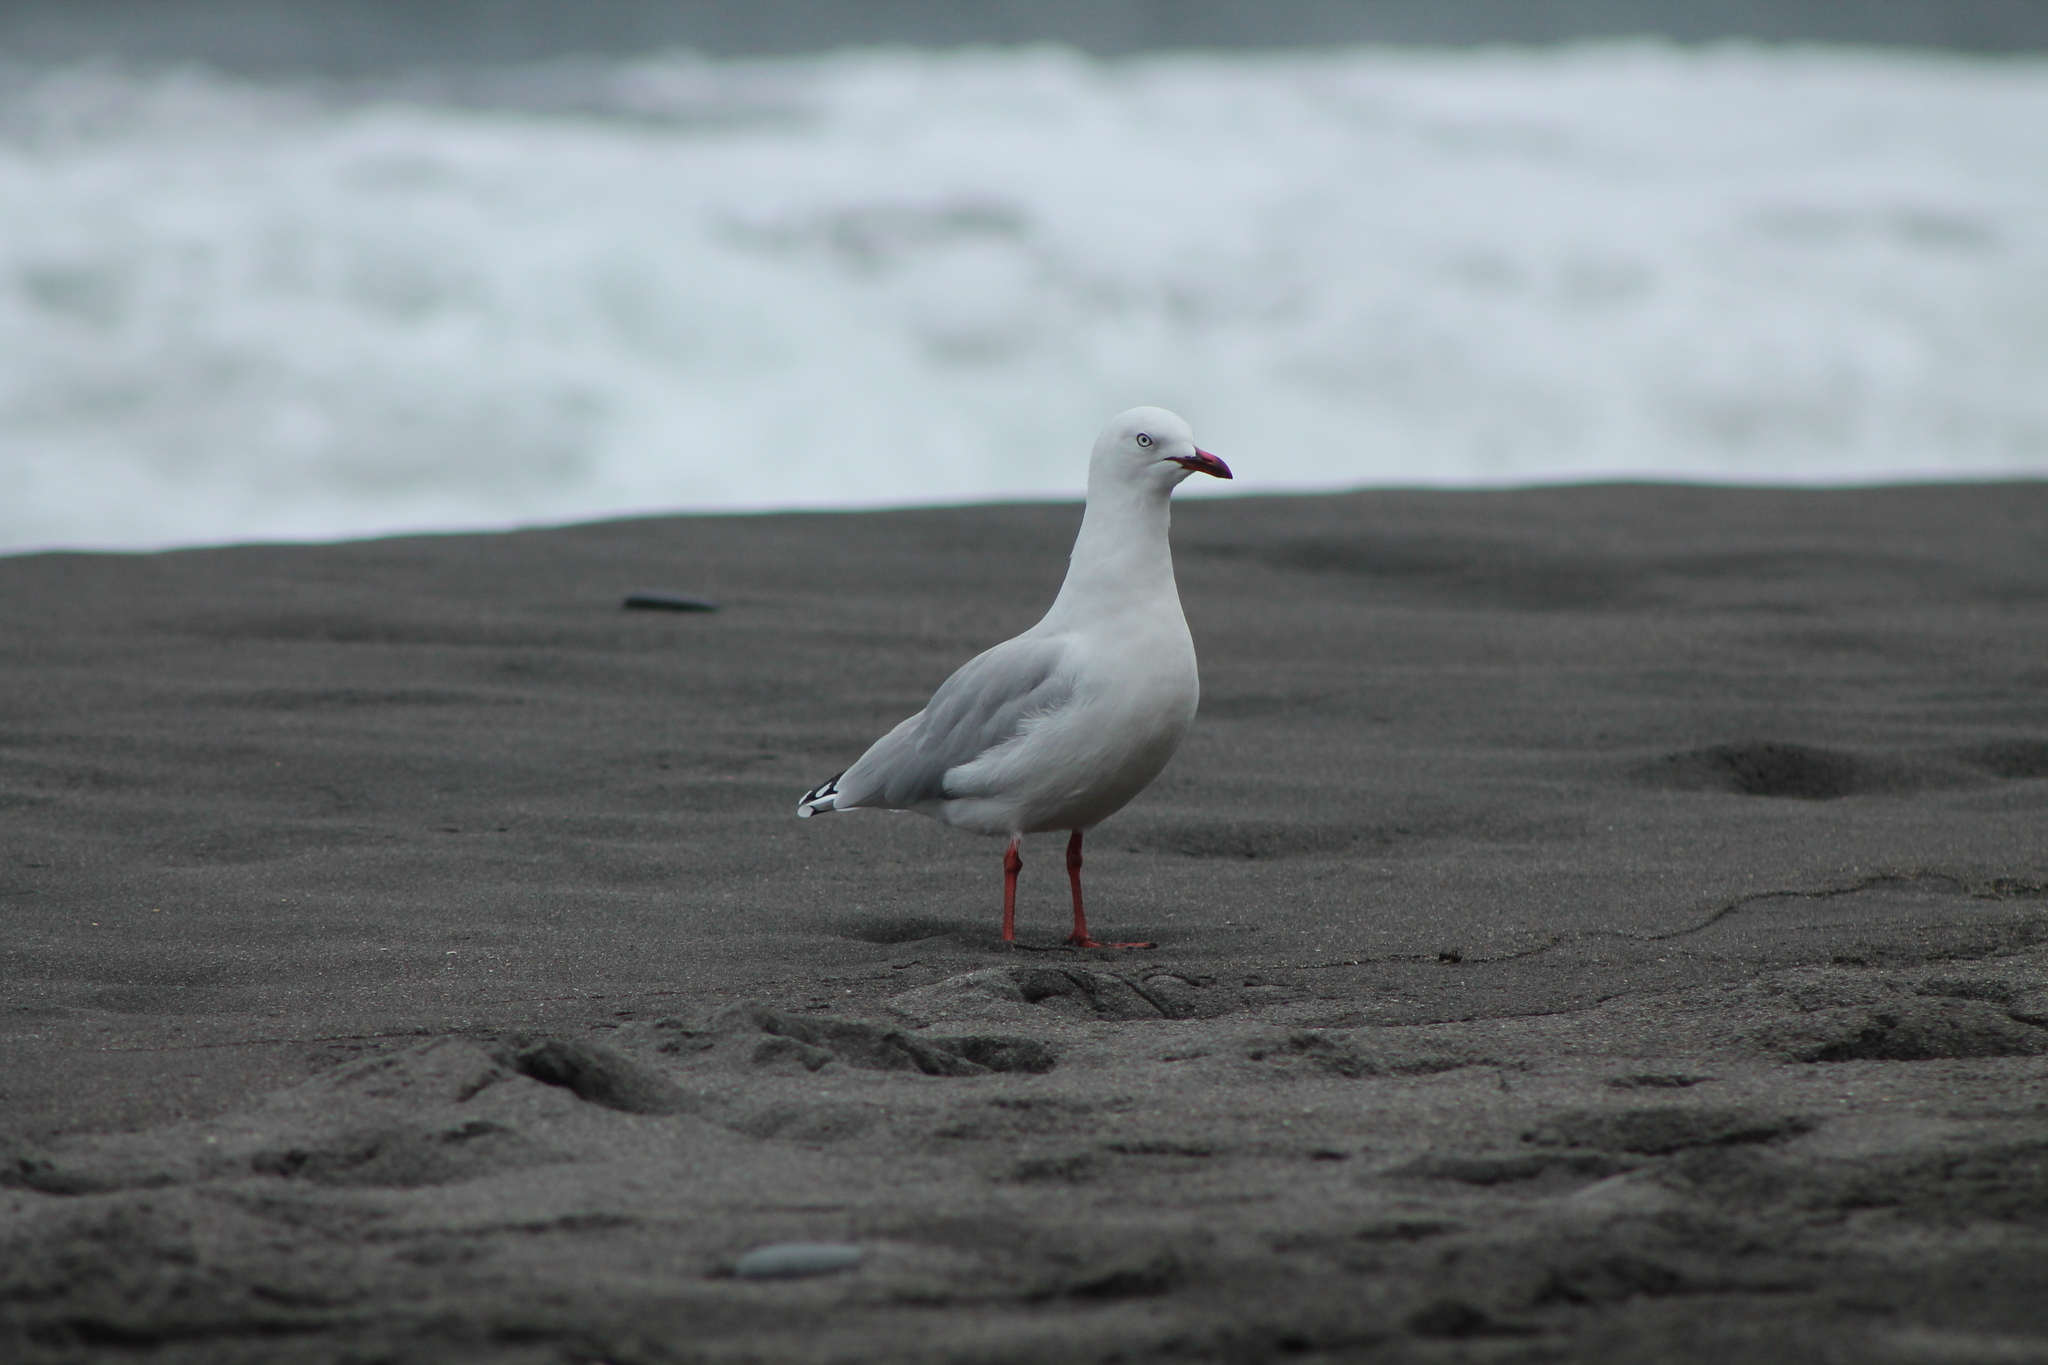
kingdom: Animalia
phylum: Chordata
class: Aves
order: Charadriiformes
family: Laridae
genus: Chroicocephalus
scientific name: Chroicocephalus novaehollandiae
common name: Silver gull
